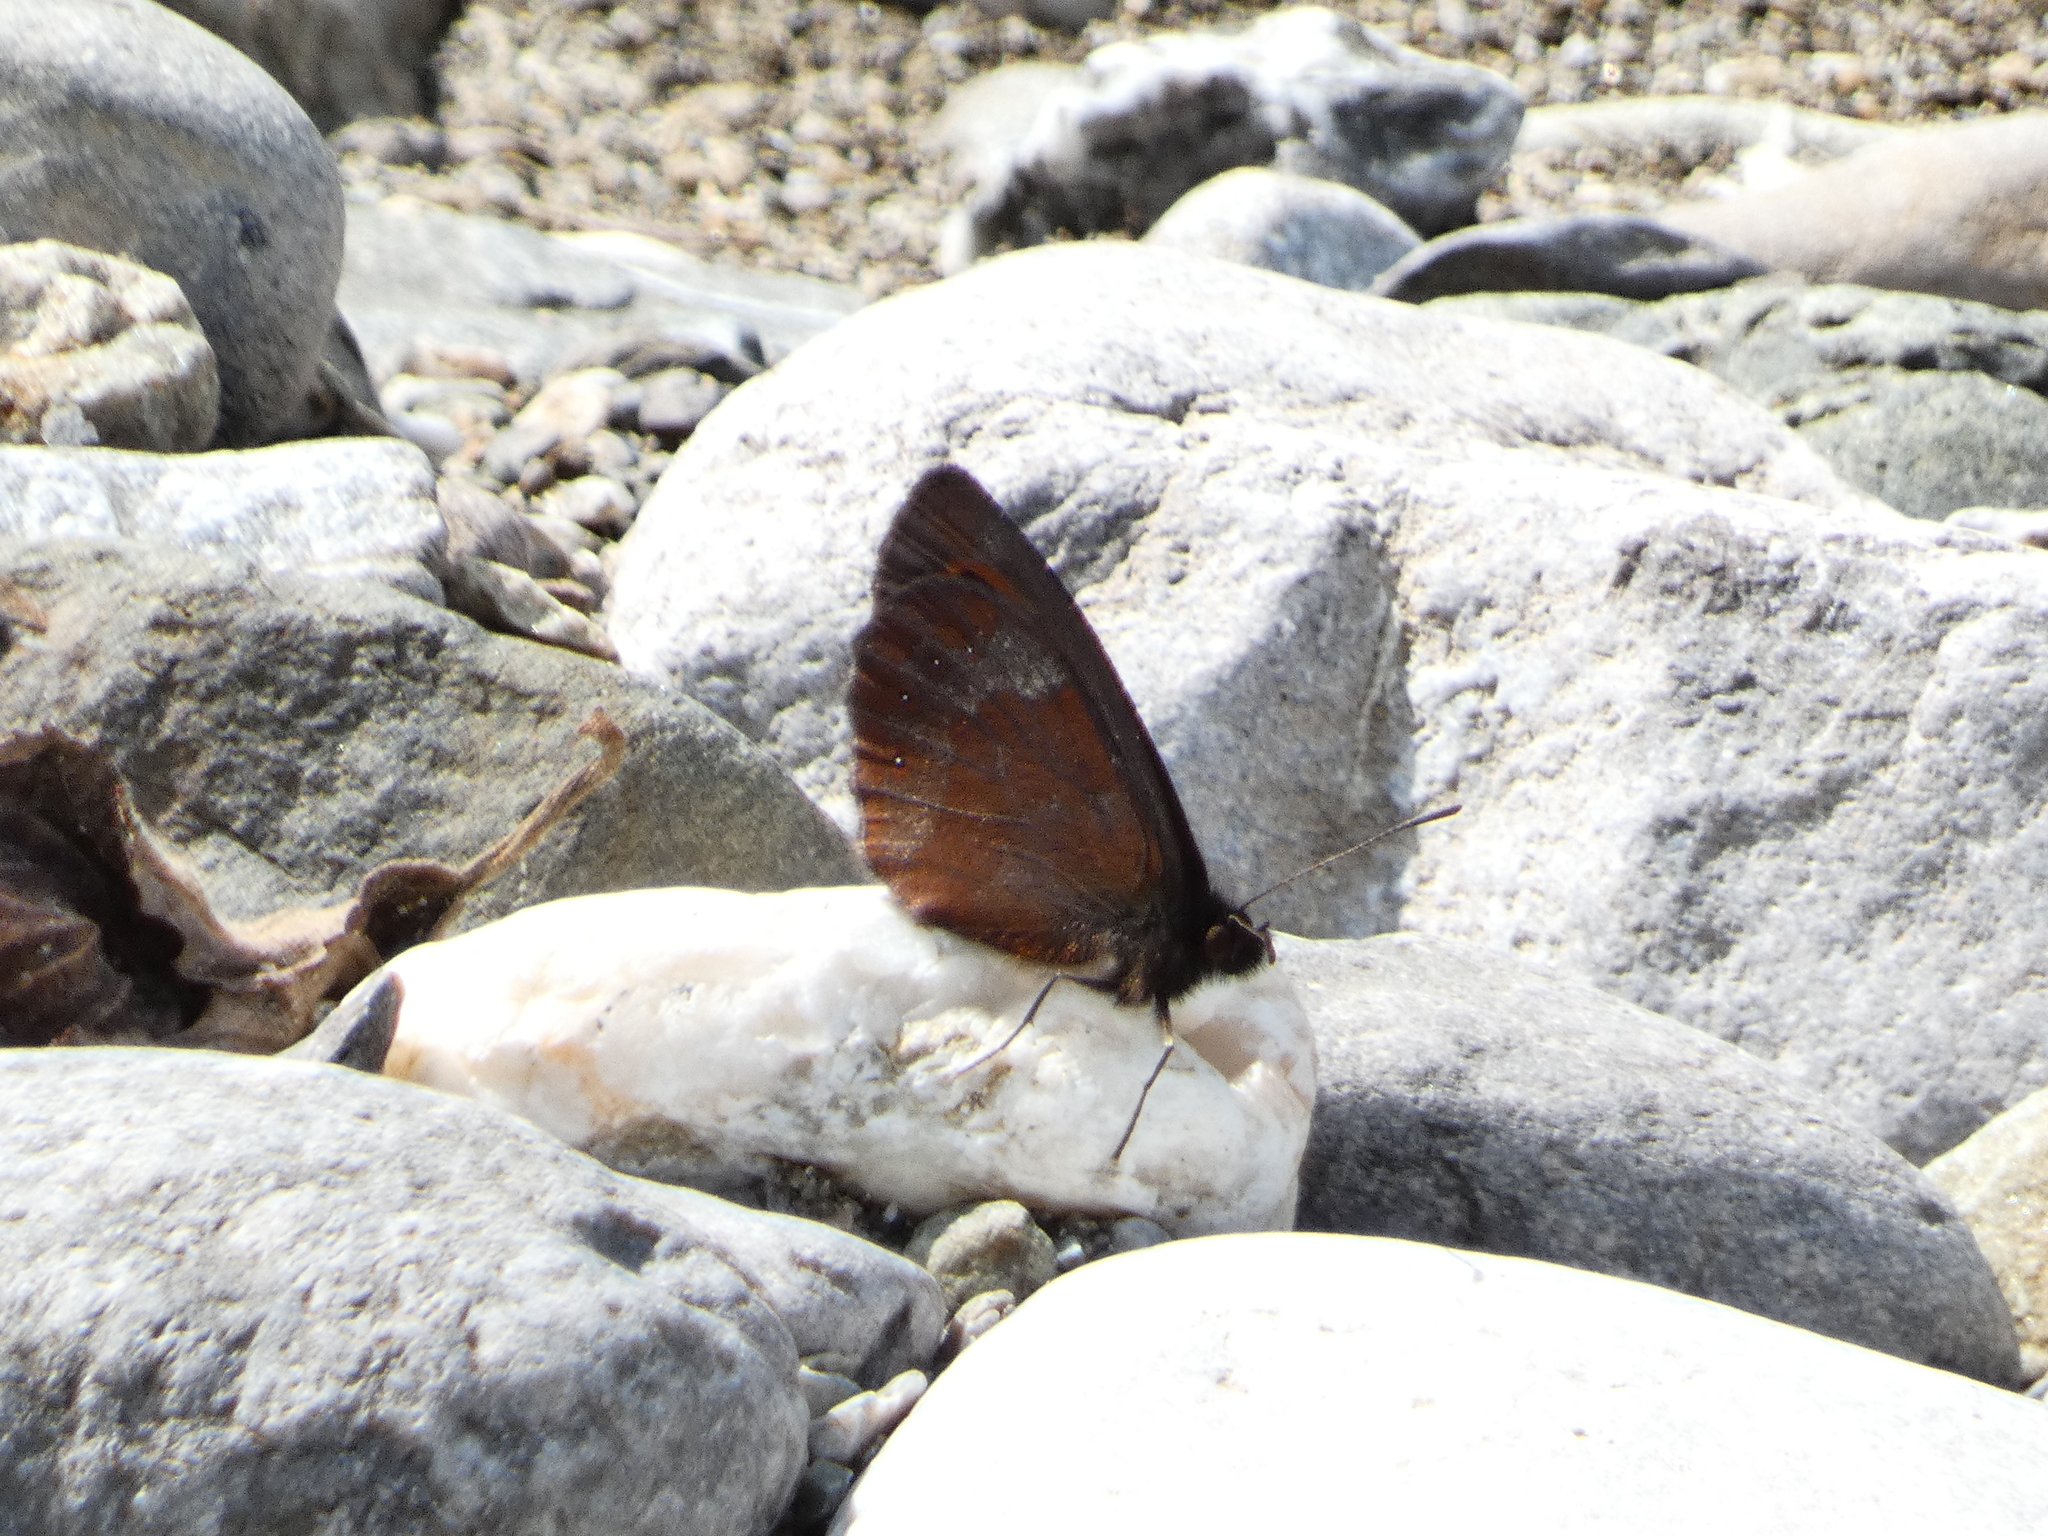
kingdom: Animalia
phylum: Arthropoda
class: Insecta
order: Lepidoptera
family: Nymphalidae
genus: Erebia
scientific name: Erebia aethiops
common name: Scotch argus
